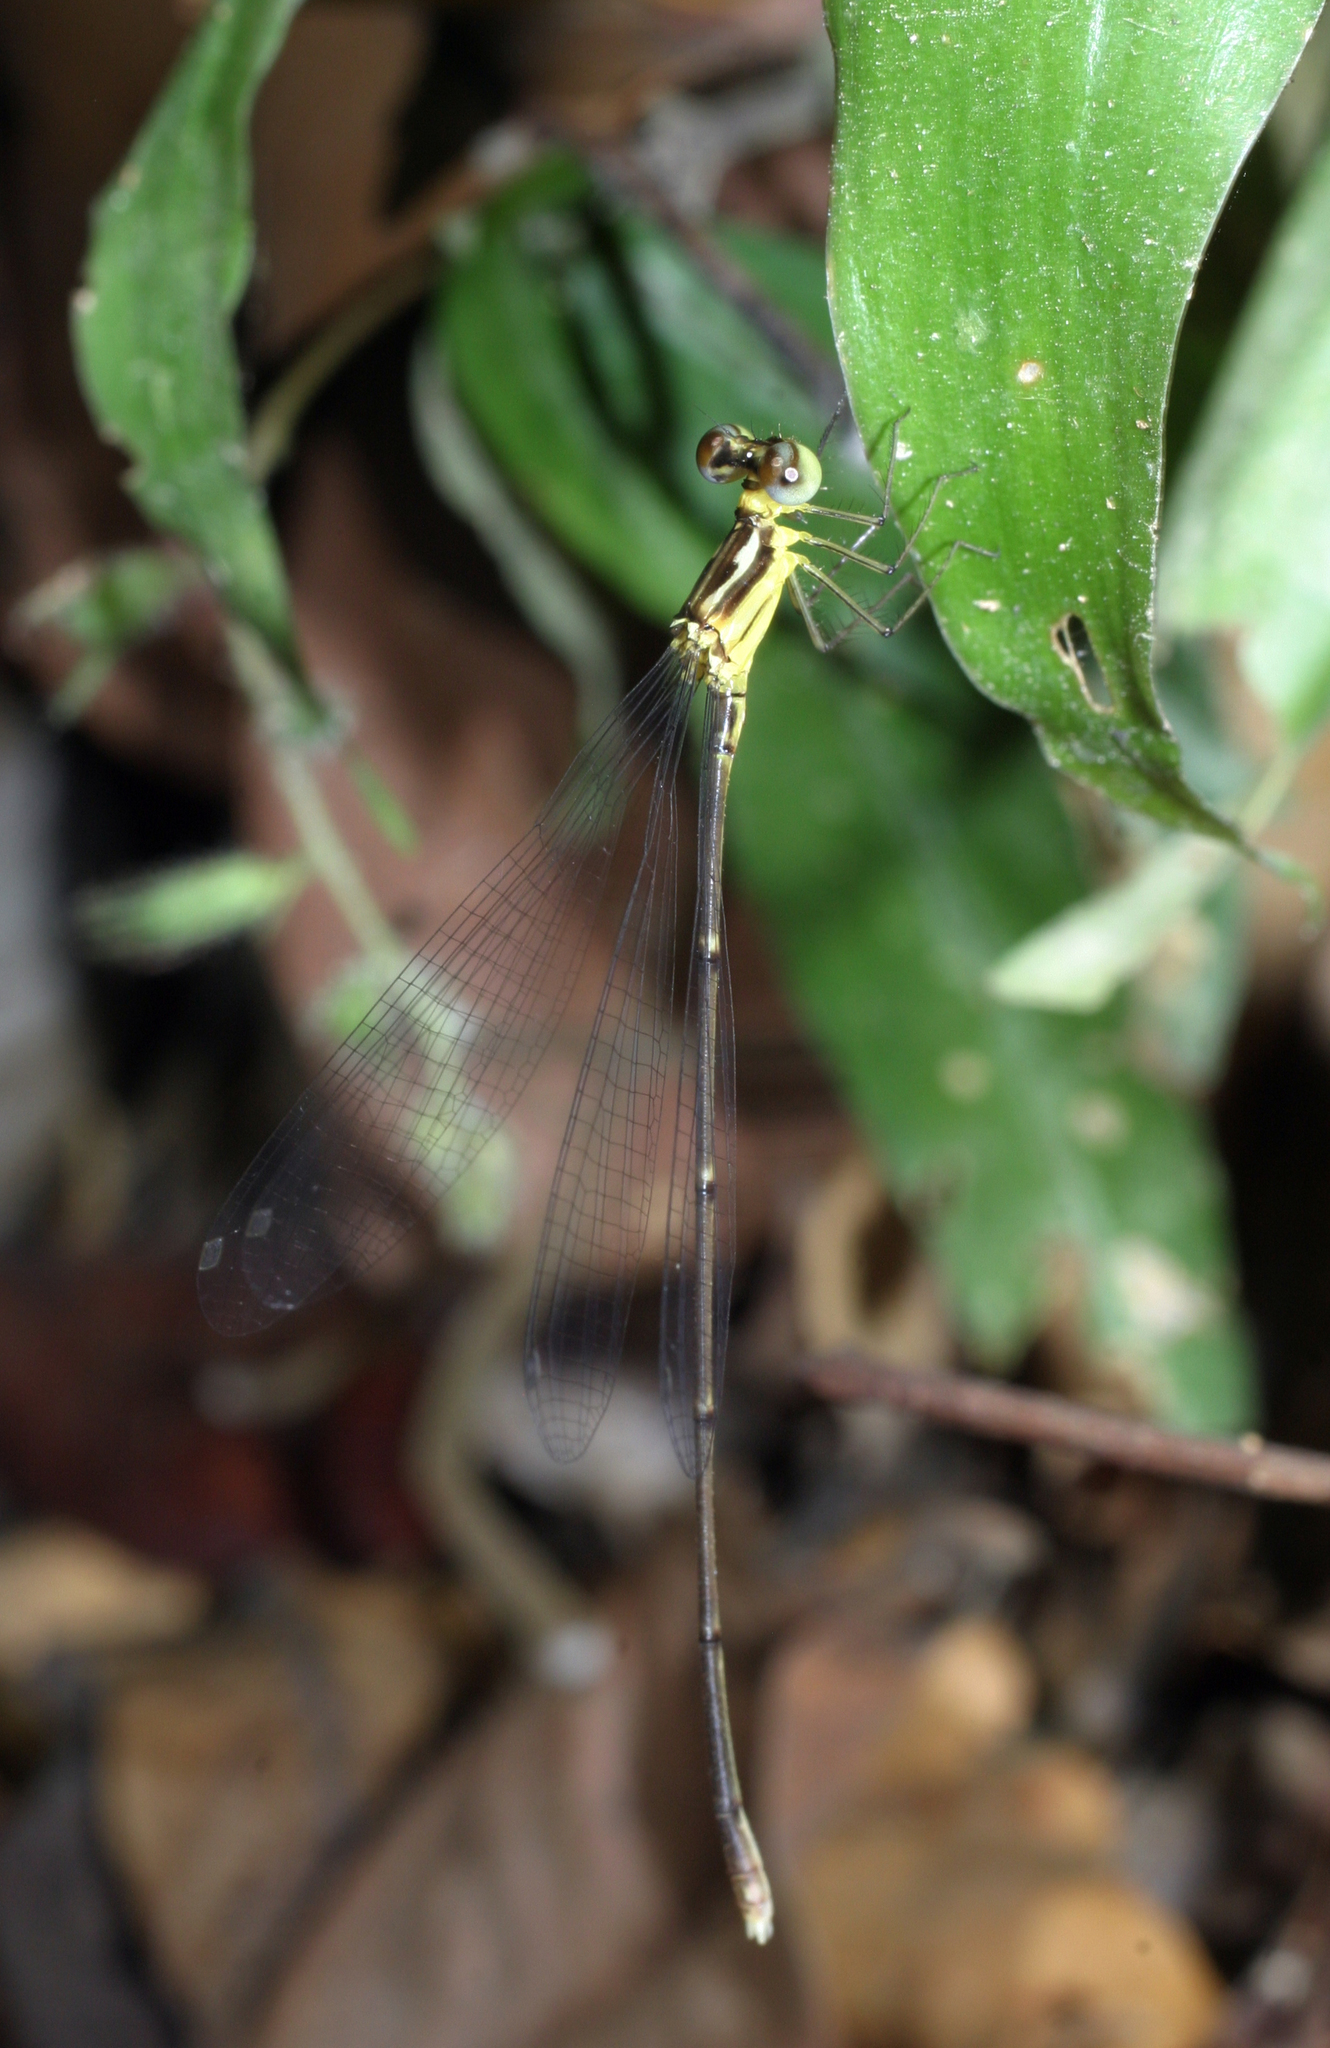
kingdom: Animalia
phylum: Arthropoda
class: Insecta
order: Odonata
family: Platycnemididae
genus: Coeliccia
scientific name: Coeliccia albicauda
